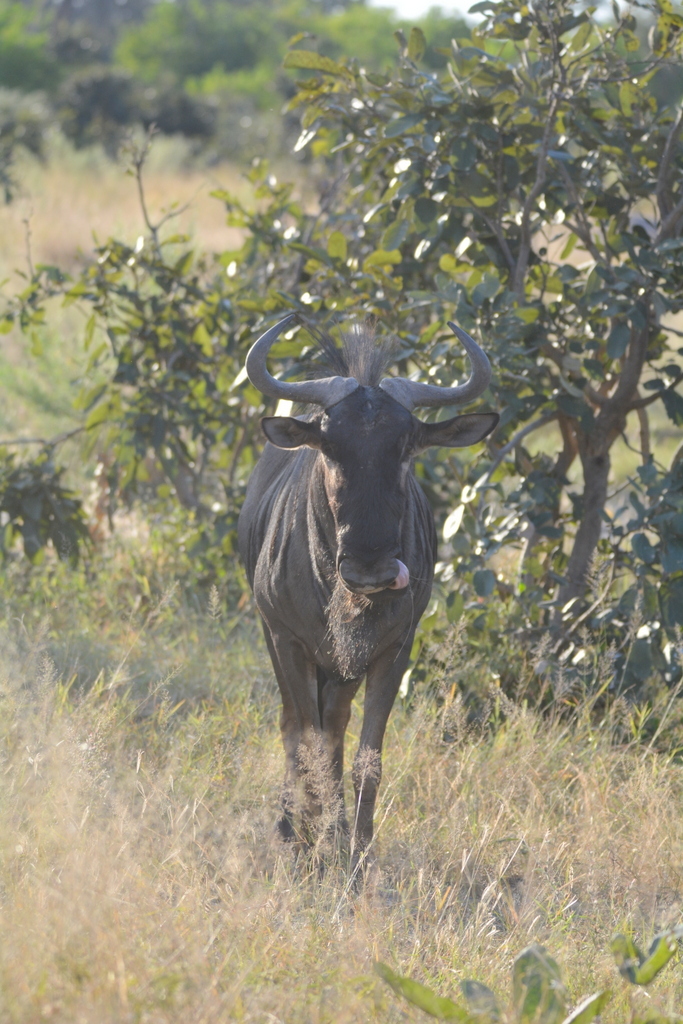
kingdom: Animalia
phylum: Chordata
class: Mammalia
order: Artiodactyla
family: Bovidae
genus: Connochaetes
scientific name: Connochaetes taurinus
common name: Blue wildebeest
